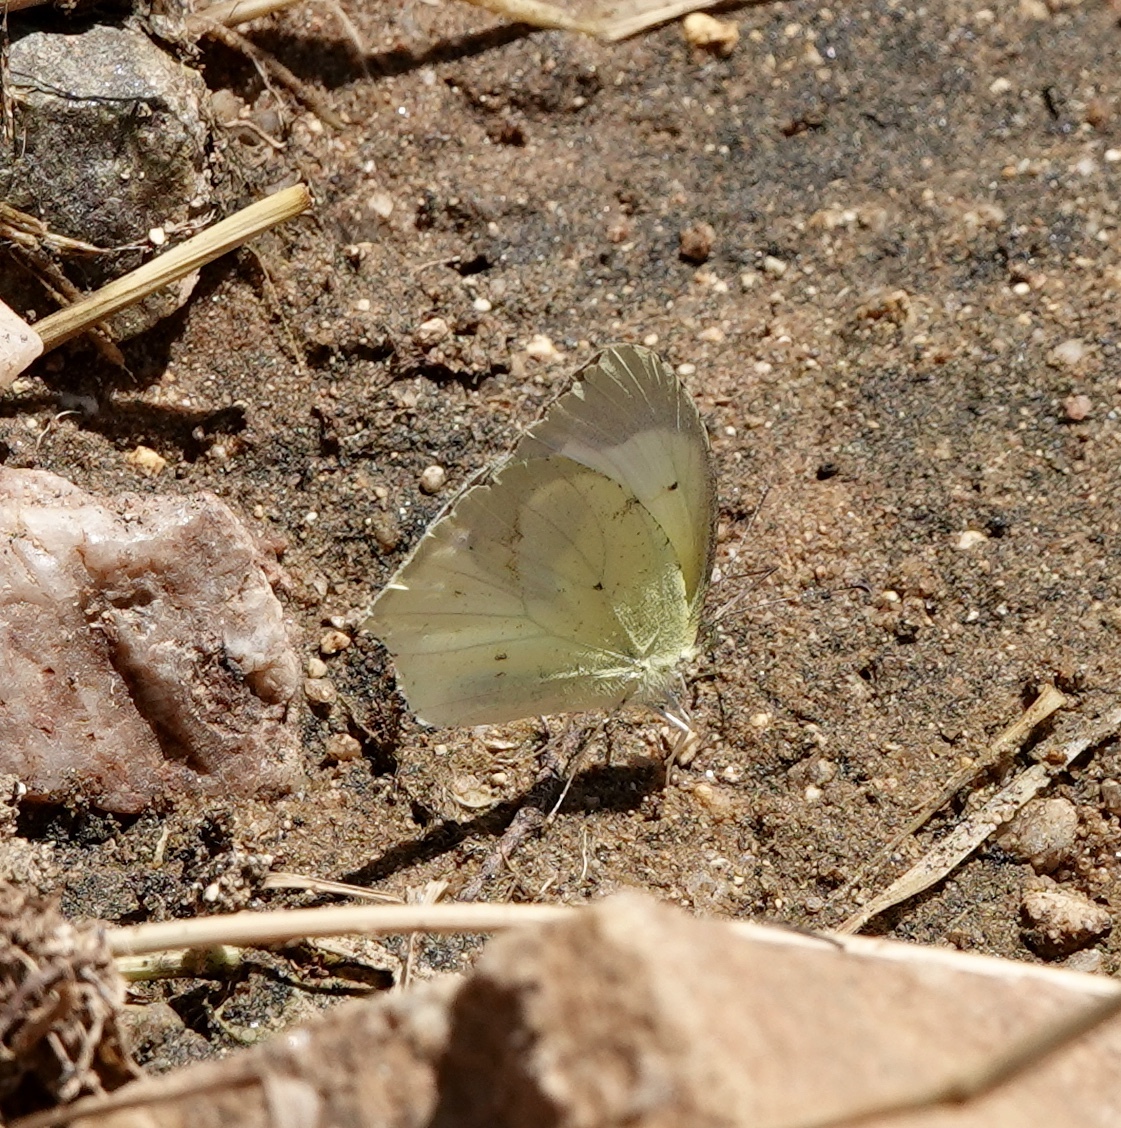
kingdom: Animalia
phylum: Arthropoda
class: Insecta
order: Lepidoptera
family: Pieridae
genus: Abaeis
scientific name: Abaeis mexicana
